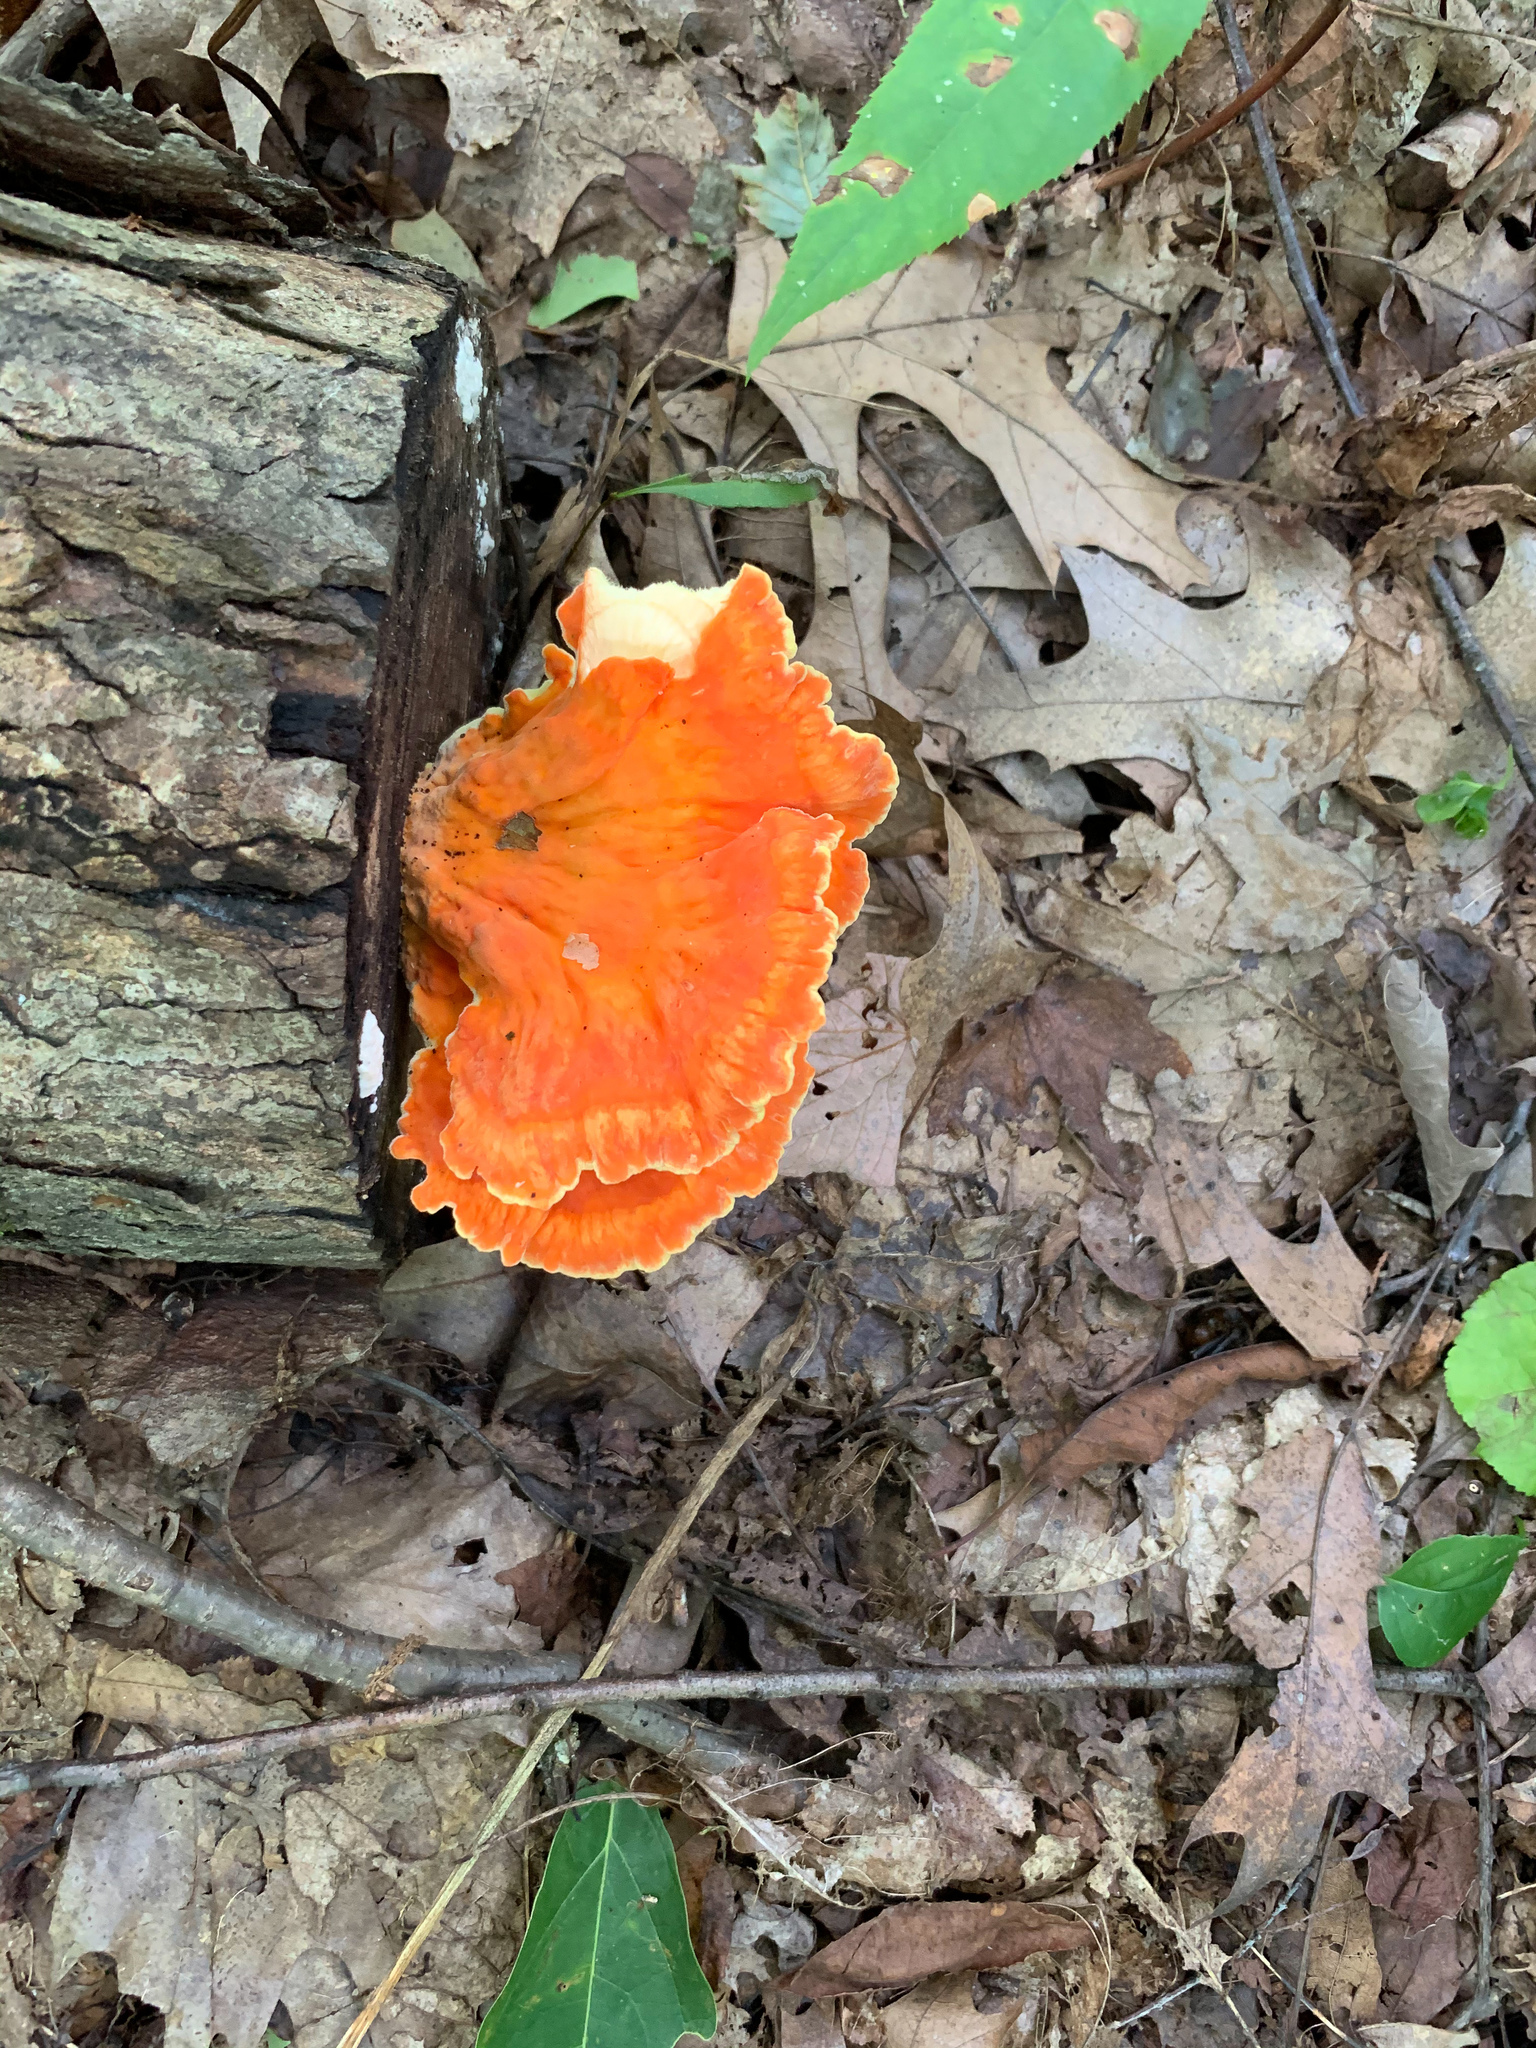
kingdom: Fungi
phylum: Basidiomycota
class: Agaricomycetes
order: Polyporales
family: Laetiporaceae
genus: Laetiporus
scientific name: Laetiporus sulphureus
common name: Chicken of the woods
